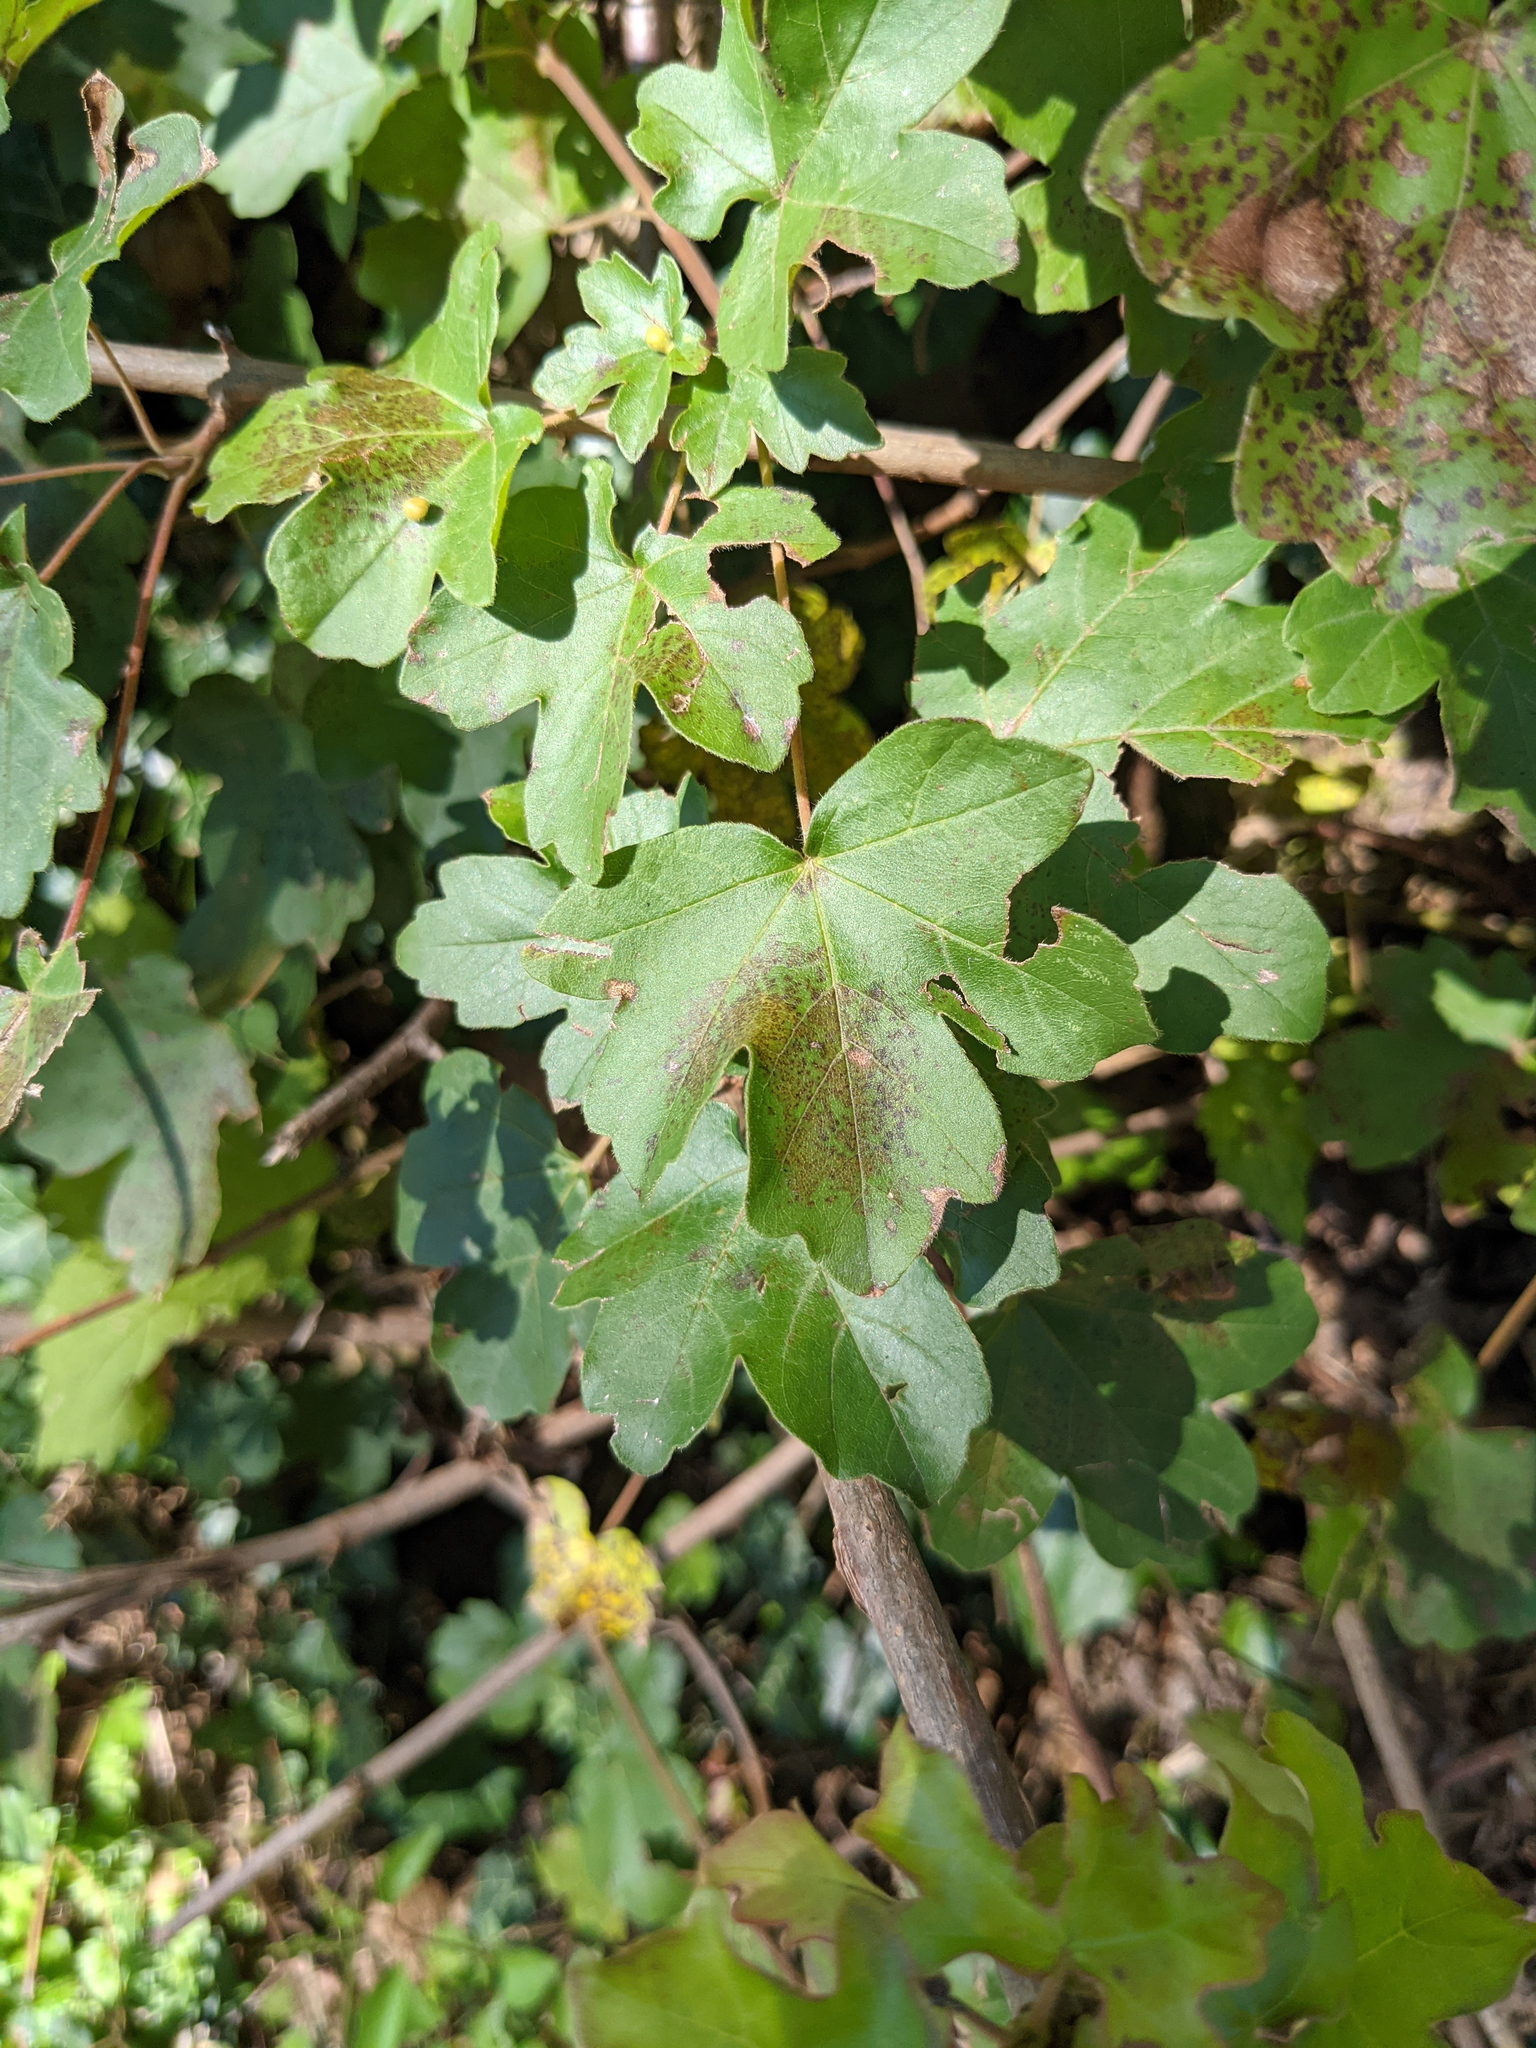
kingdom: Plantae
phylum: Tracheophyta
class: Magnoliopsida
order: Sapindales
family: Sapindaceae
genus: Acer
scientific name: Acer campestre
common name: Field maple
